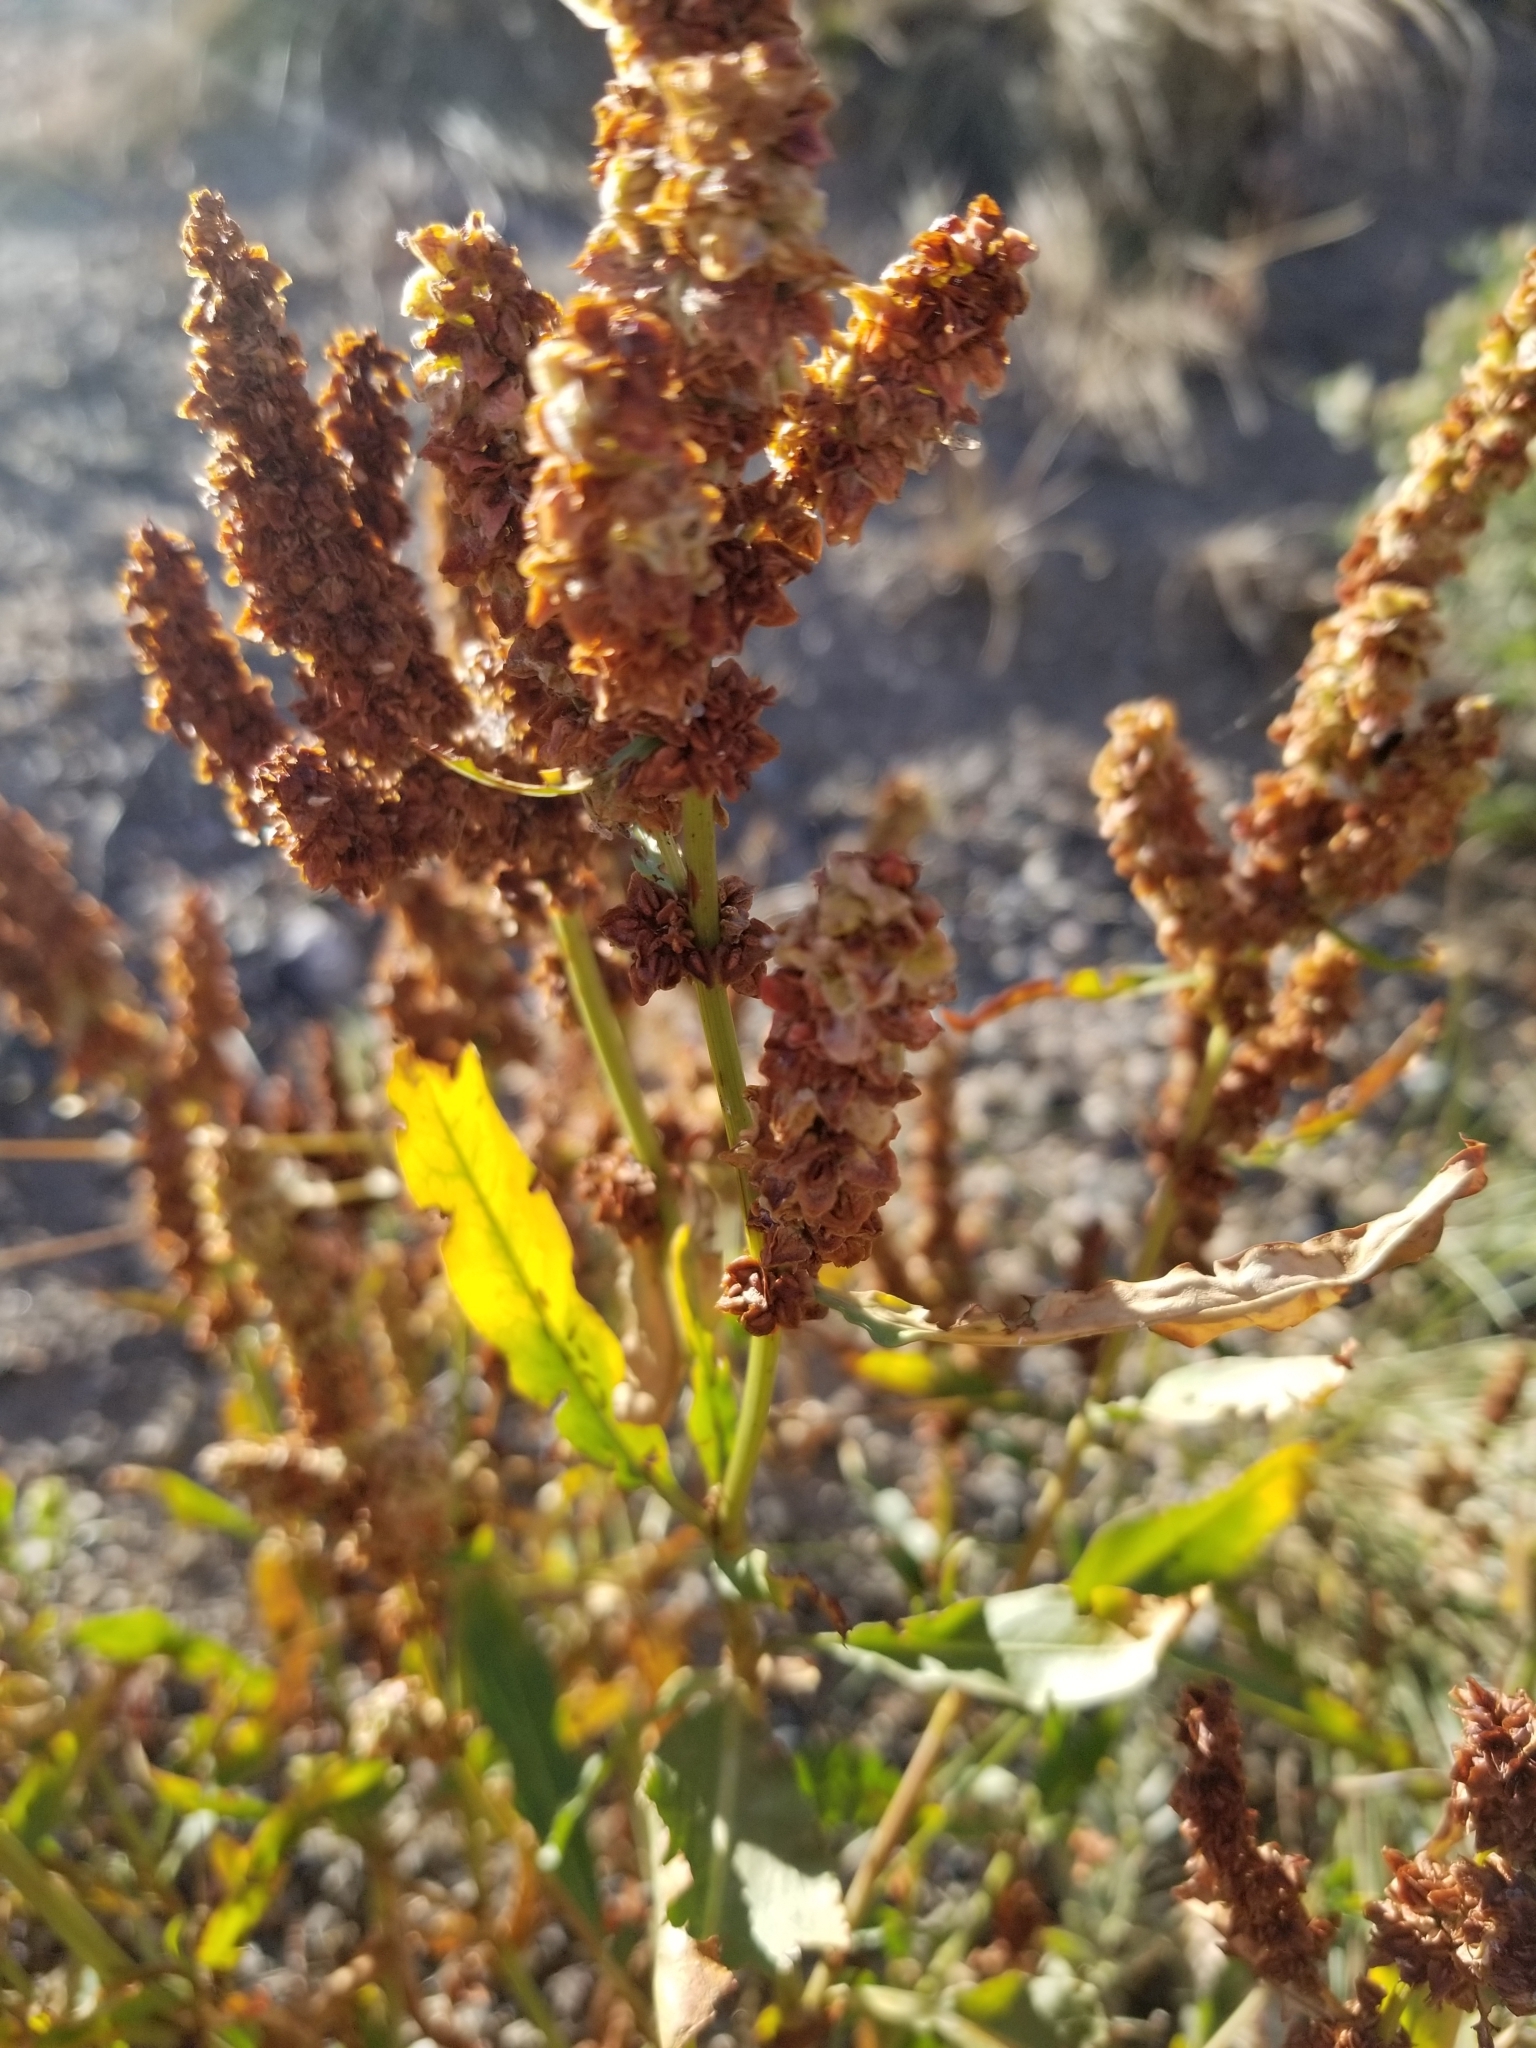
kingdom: Plantae
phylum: Tracheophyta
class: Magnoliopsida
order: Caryophyllales
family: Polygonaceae
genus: Rumex
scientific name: Rumex crispus
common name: Curled dock
